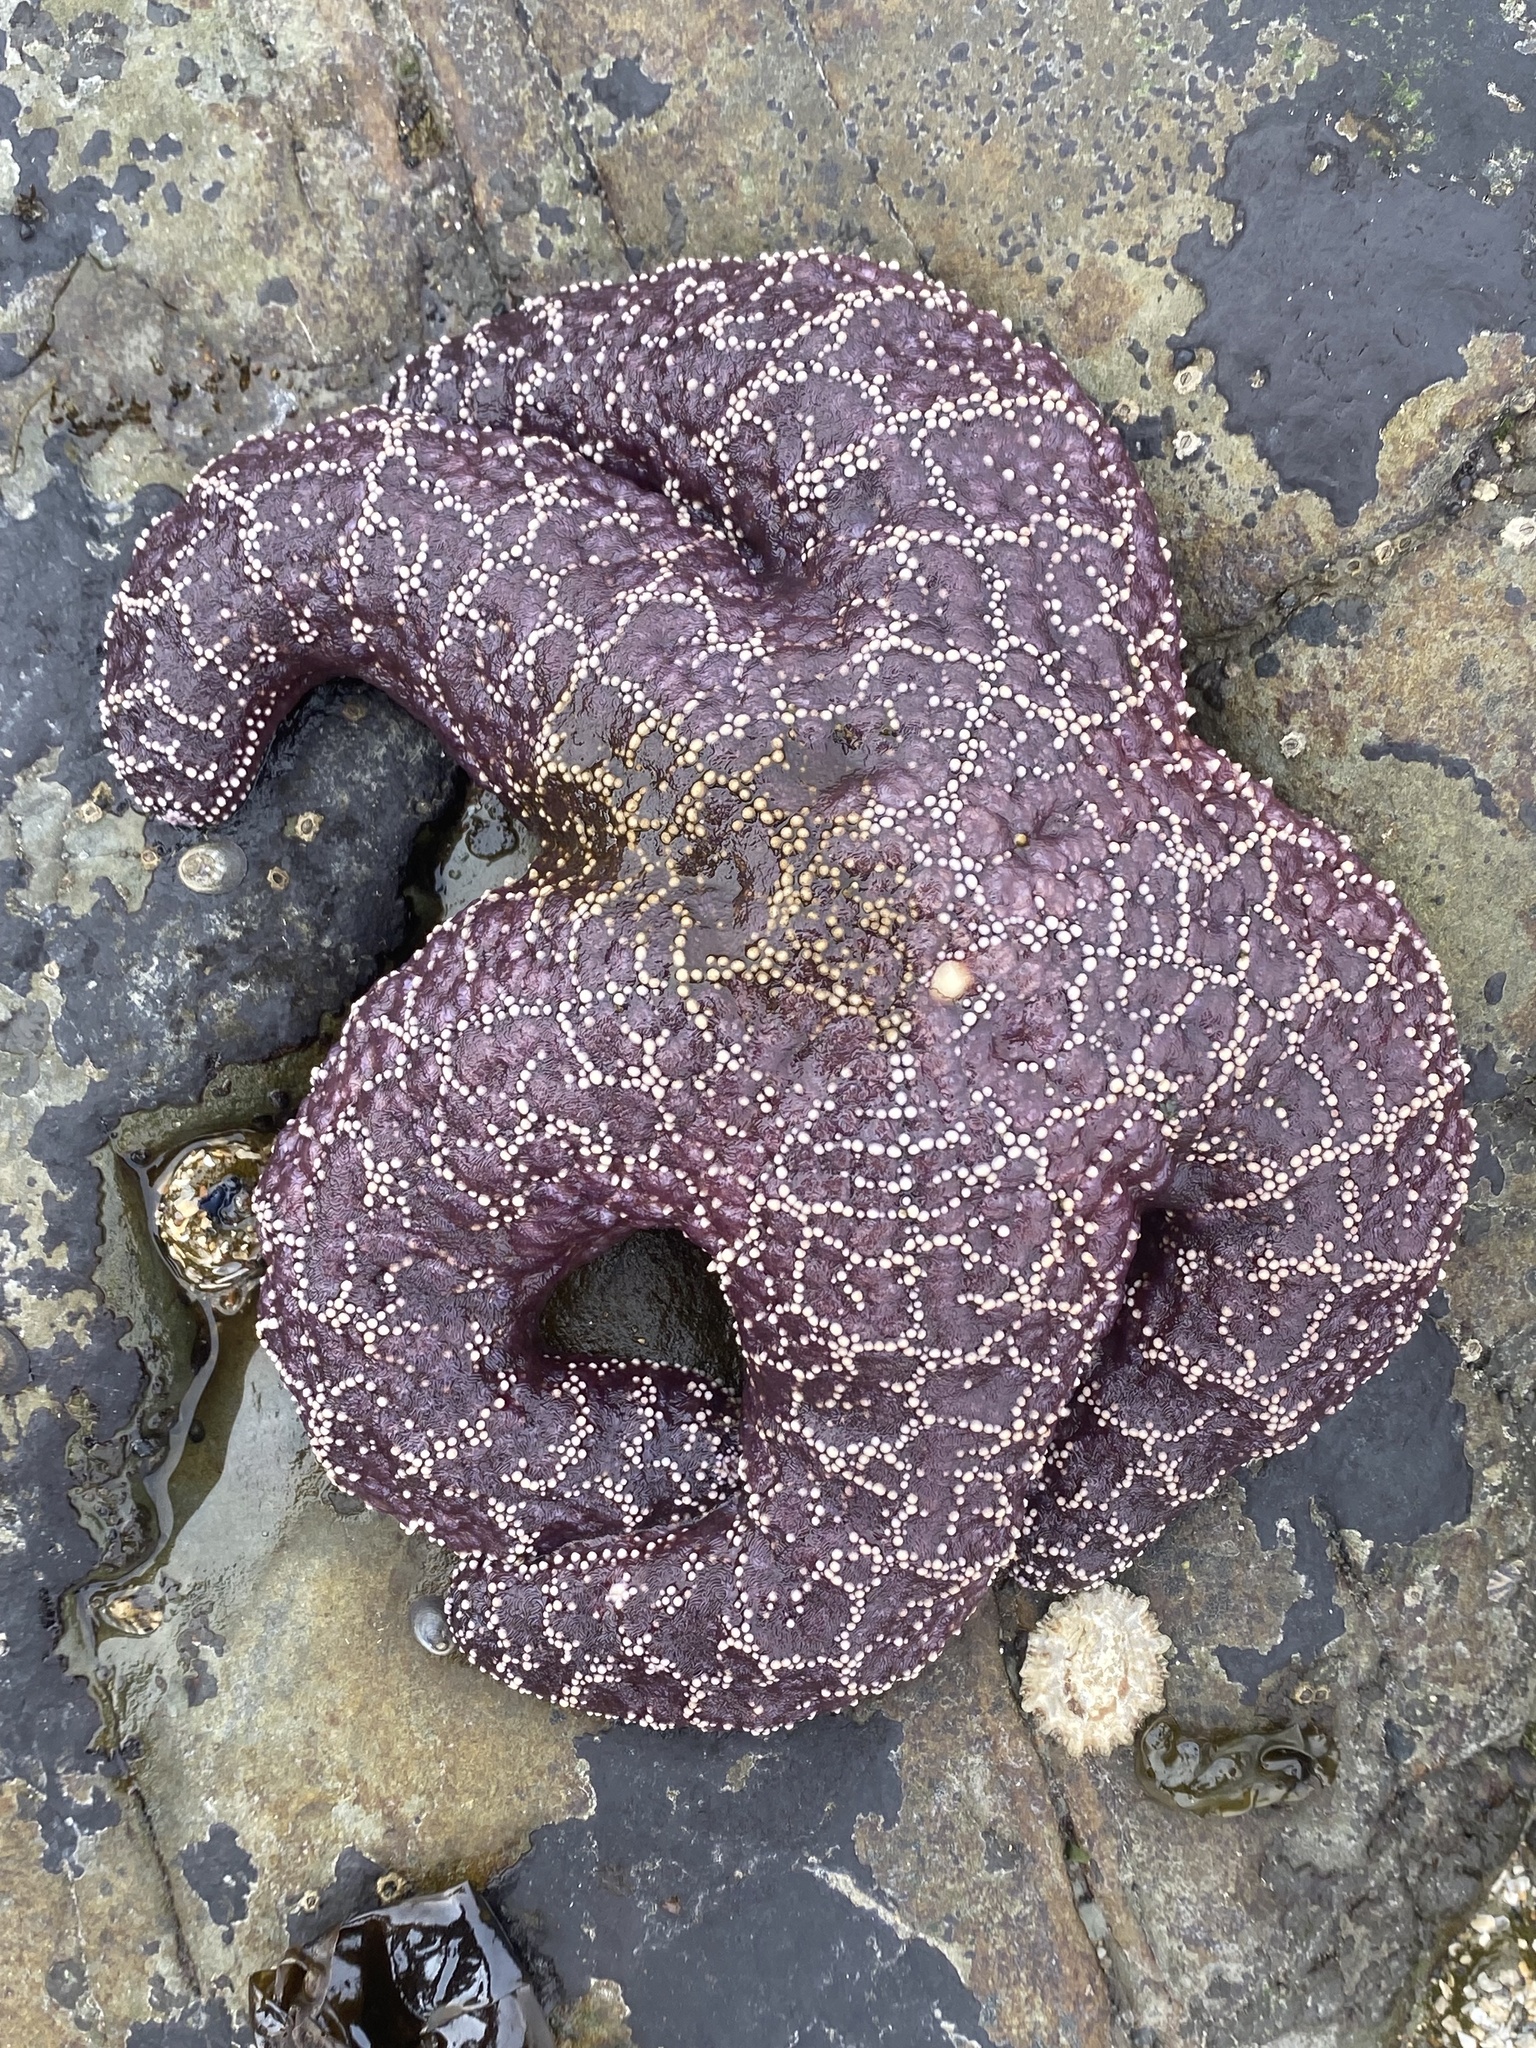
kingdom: Animalia
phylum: Echinodermata
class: Asteroidea
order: Forcipulatida
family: Asteriidae
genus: Pisaster
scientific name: Pisaster ochraceus
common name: Ochre stars
